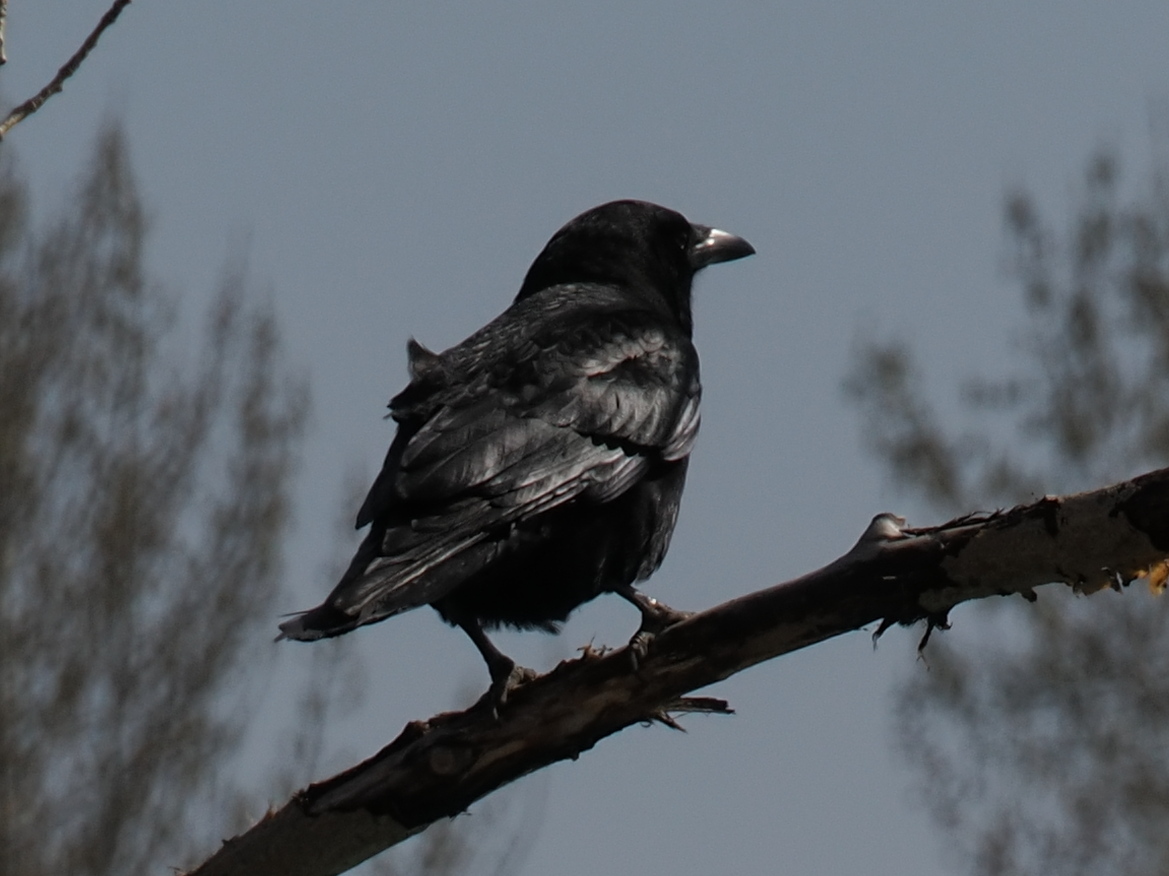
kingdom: Animalia
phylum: Chordata
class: Aves
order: Passeriformes
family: Corvidae
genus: Corvus
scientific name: Corvus brachyrhynchos
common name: American crow
